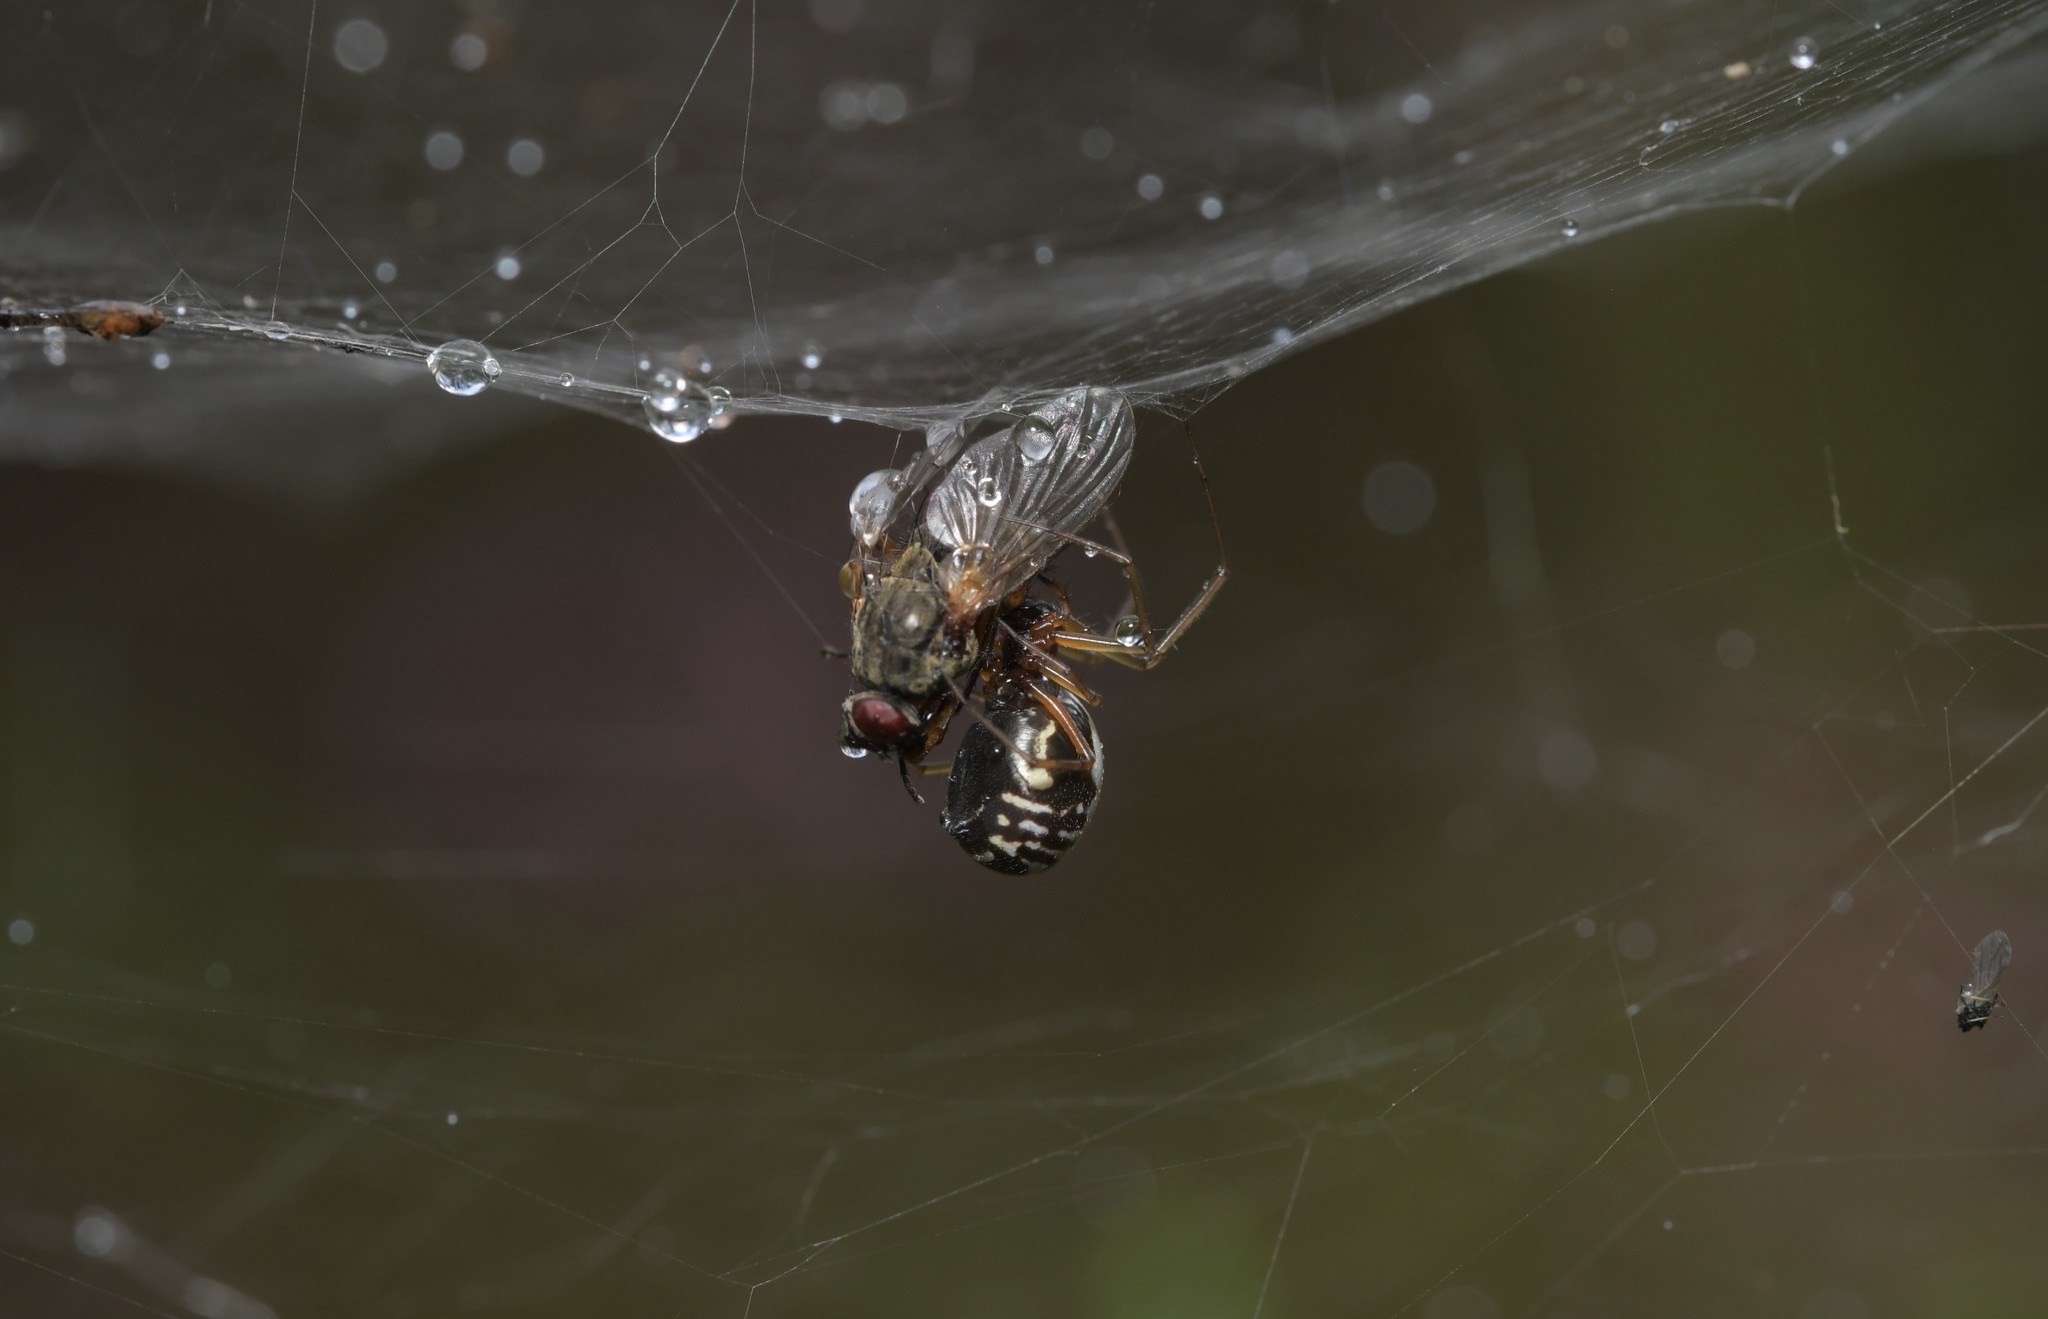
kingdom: Animalia
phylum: Arthropoda
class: Arachnida
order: Araneae
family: Linyphiidae
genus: Frontinellina
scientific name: Frontinellina frutetorum
